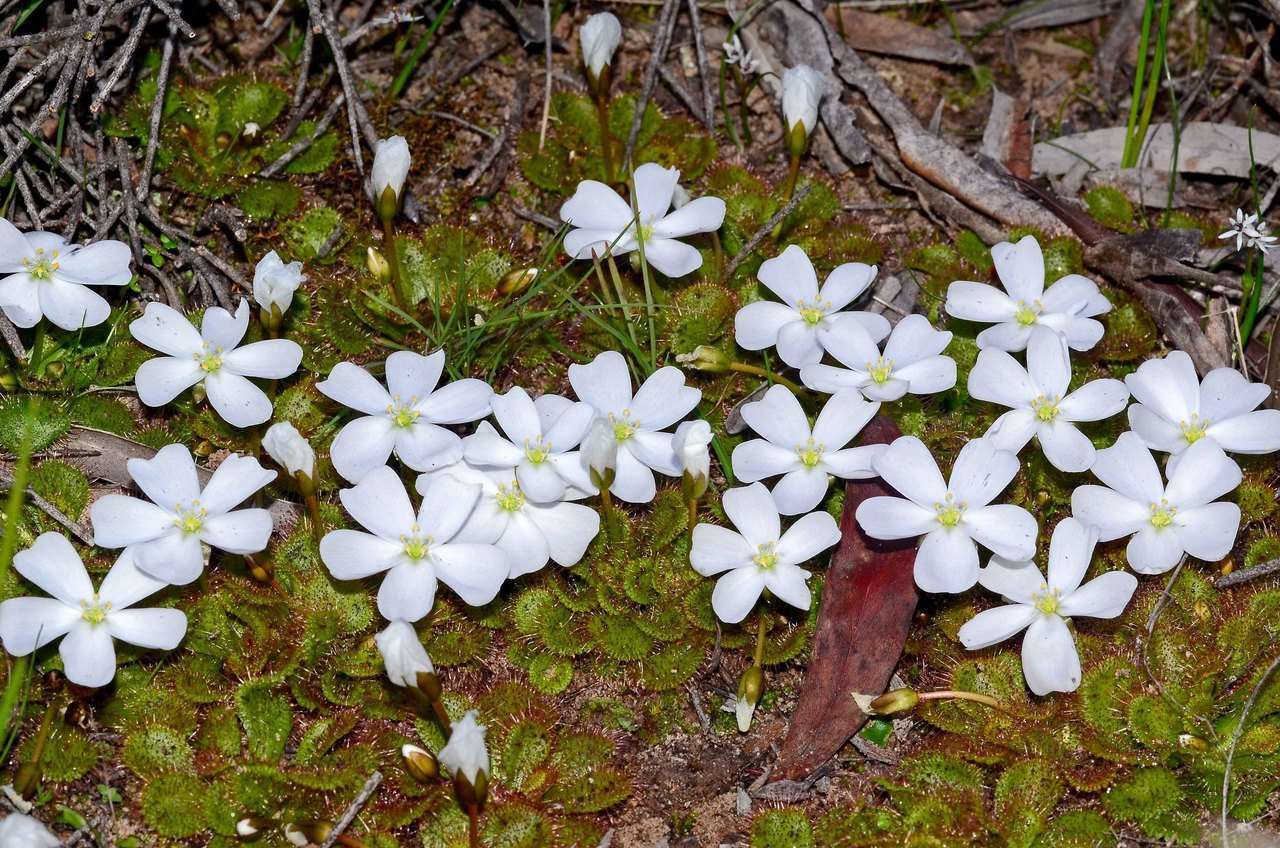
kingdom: Plantae
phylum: Tracheophyta
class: Magnoliopsida
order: Caryophyllales
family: Droseraceae
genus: Drosera
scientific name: Drosera aberrans
